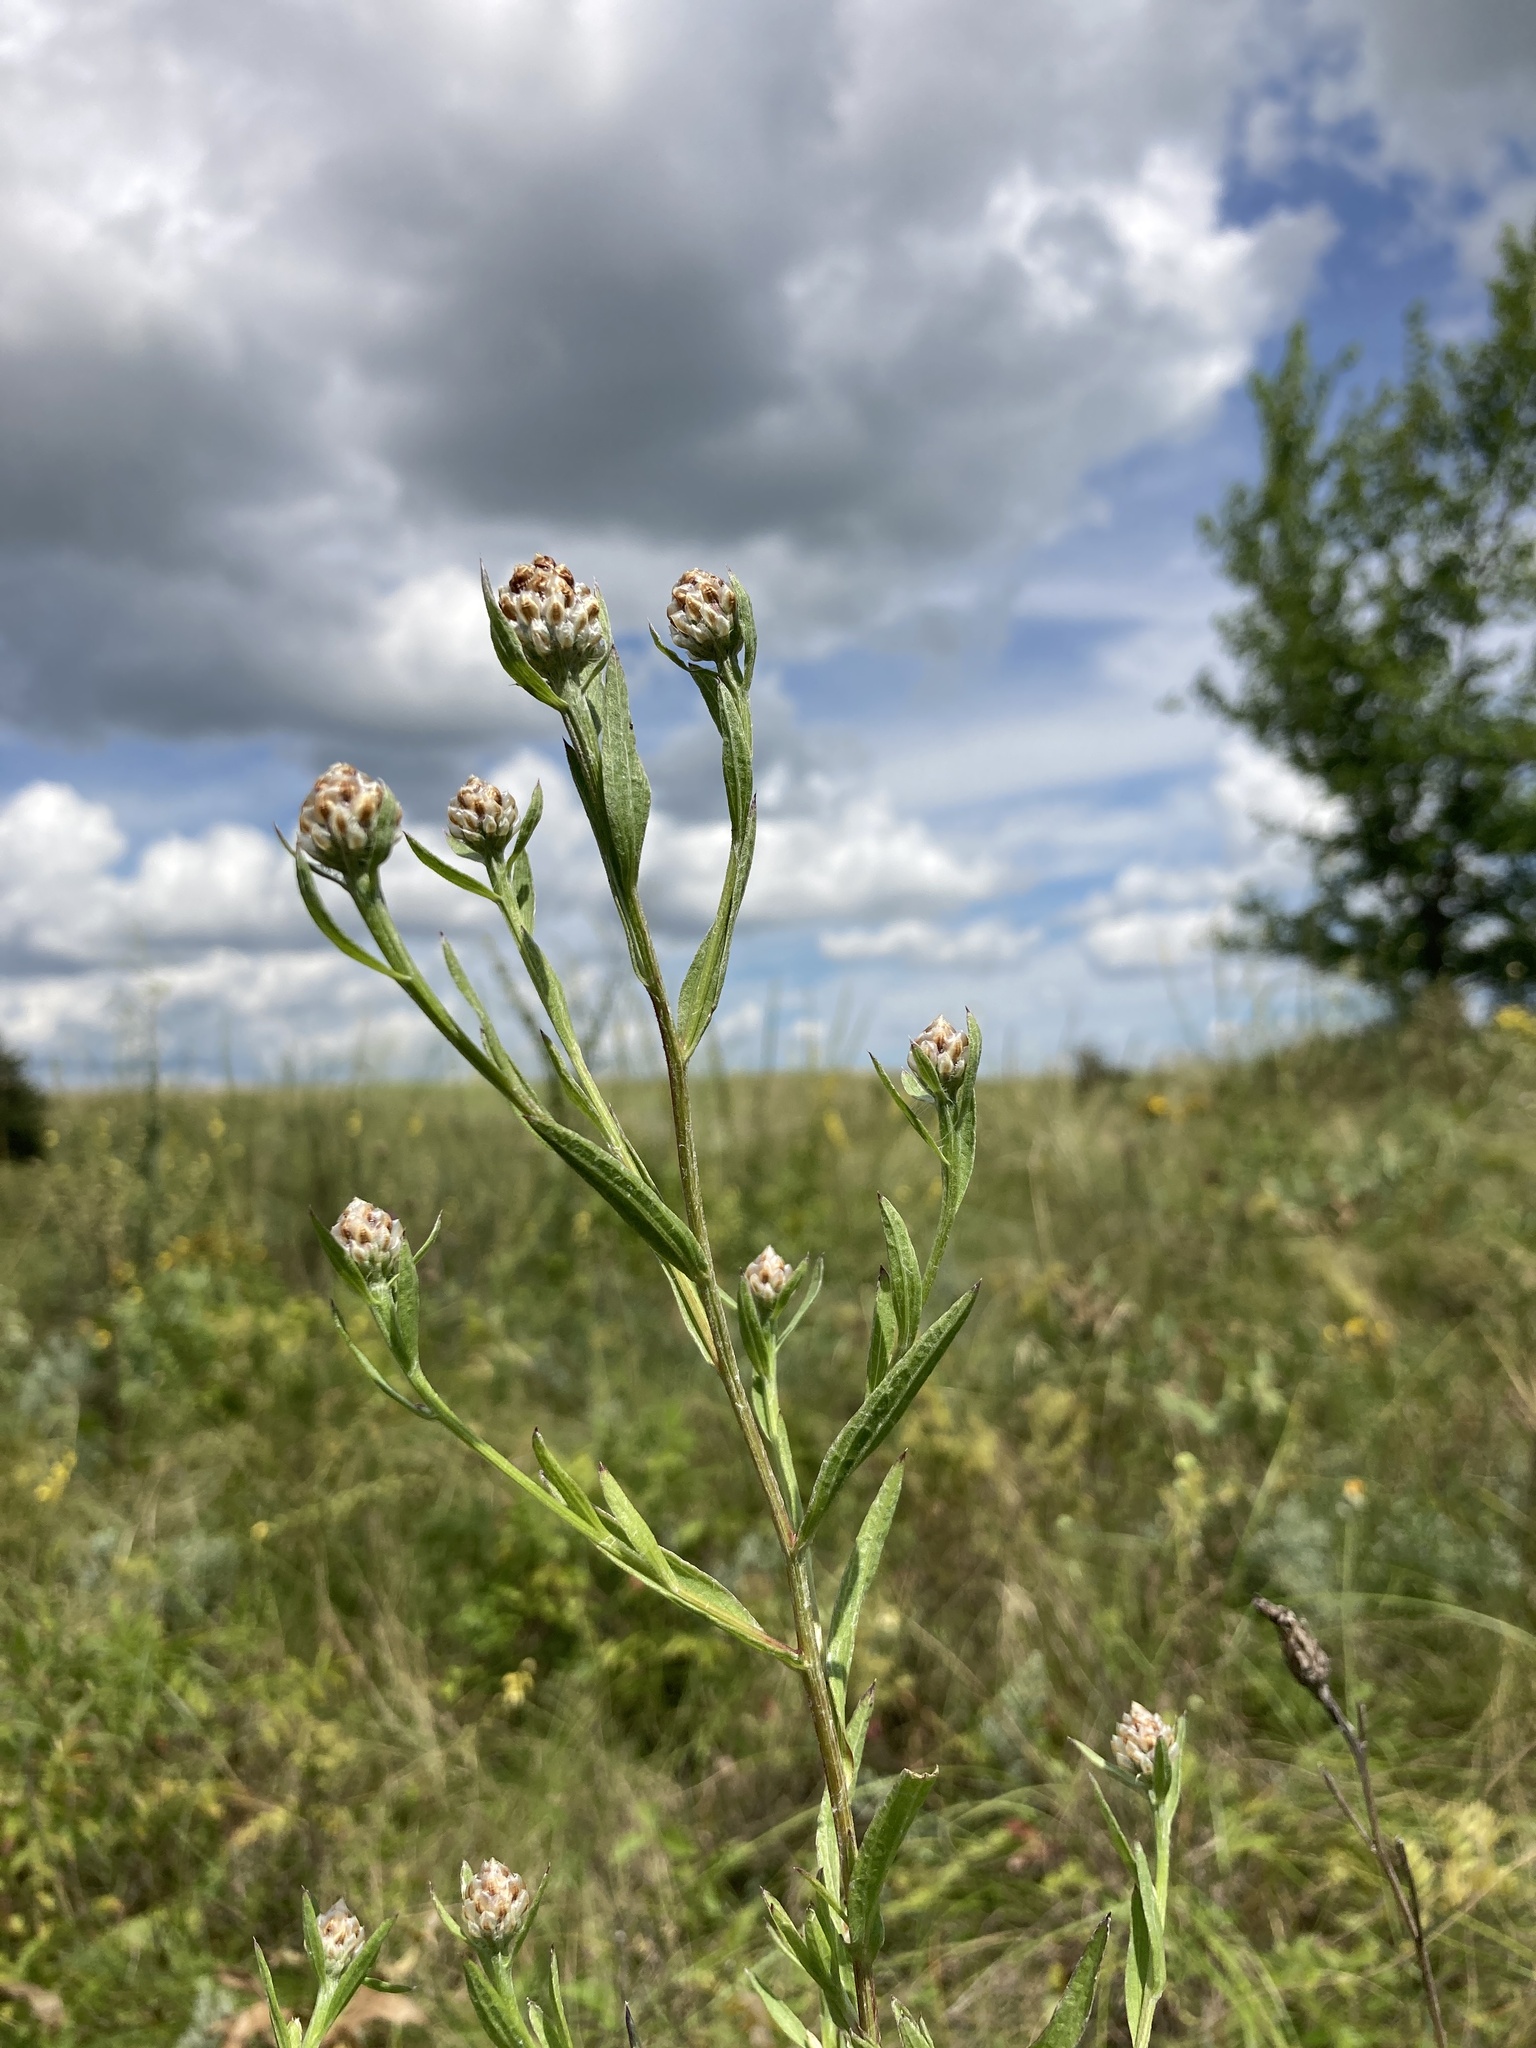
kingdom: Plantae
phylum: Tracheophyta
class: Magnoliopsida
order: Asterales
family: Asteraceae
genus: Centaurea
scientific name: Centaurea jacea
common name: Brown knapweed
